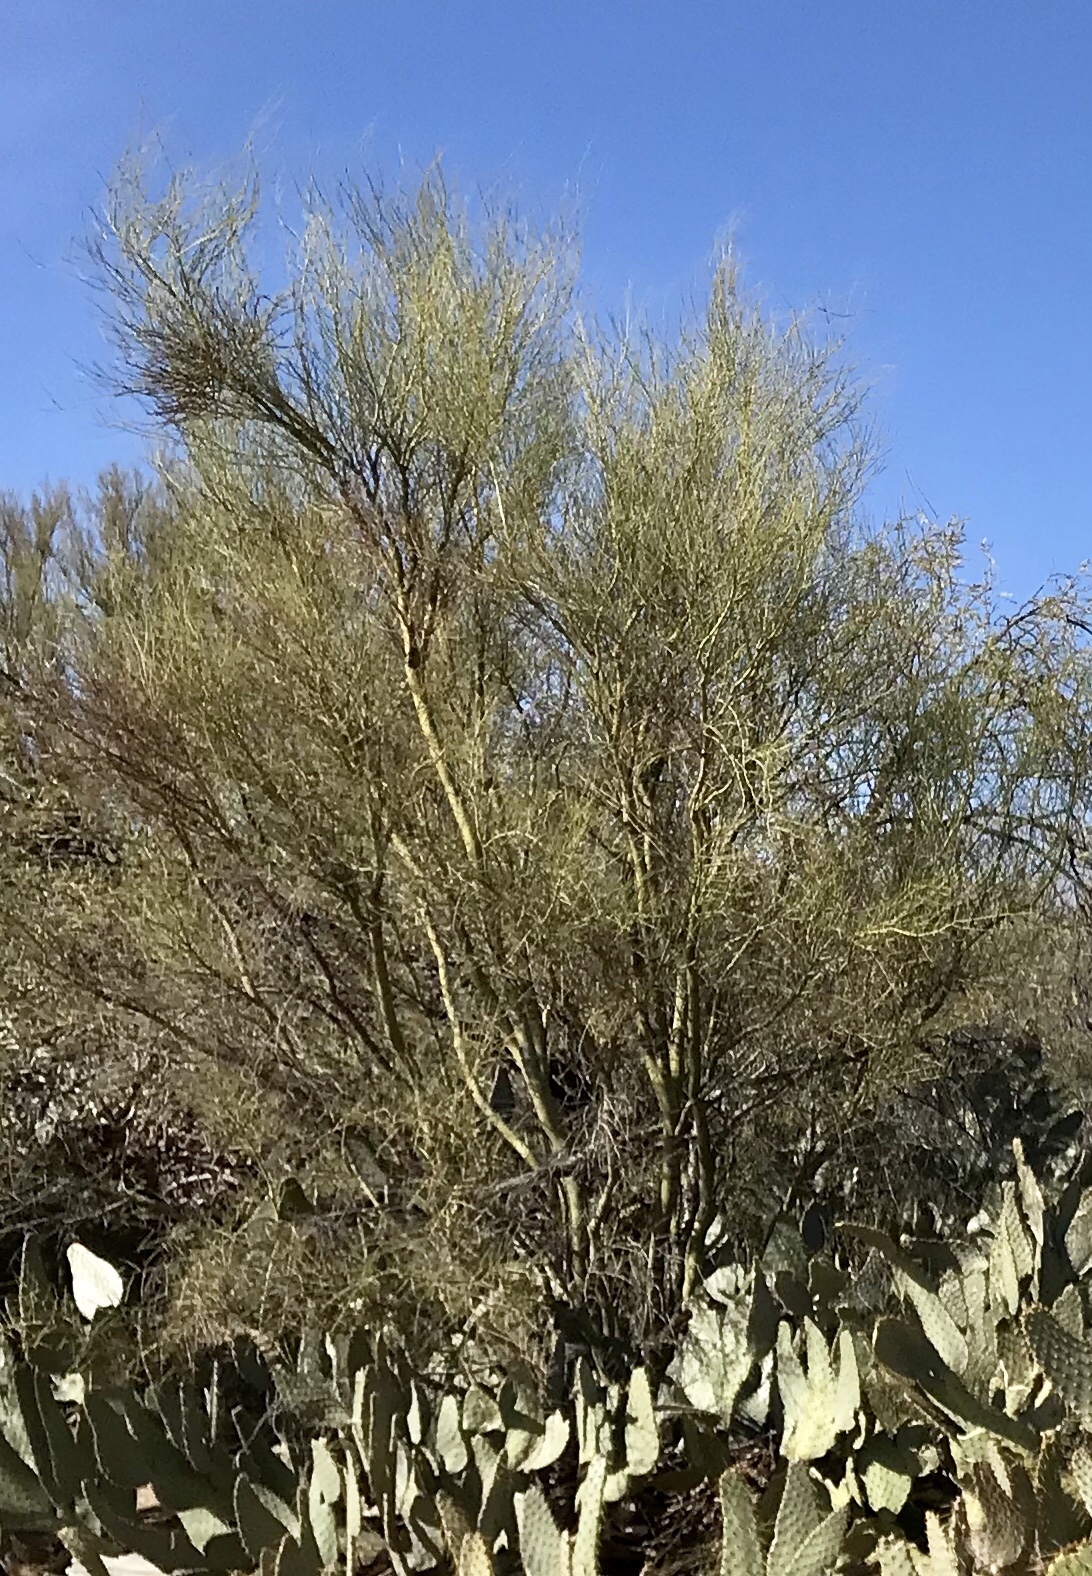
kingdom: Plantae
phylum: Tracheophyta
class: Magnoliopsida
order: Fabales
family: Fabaceae
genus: Parkinsonia
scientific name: Parkinsonia microphylla
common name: Yellow paloverde
